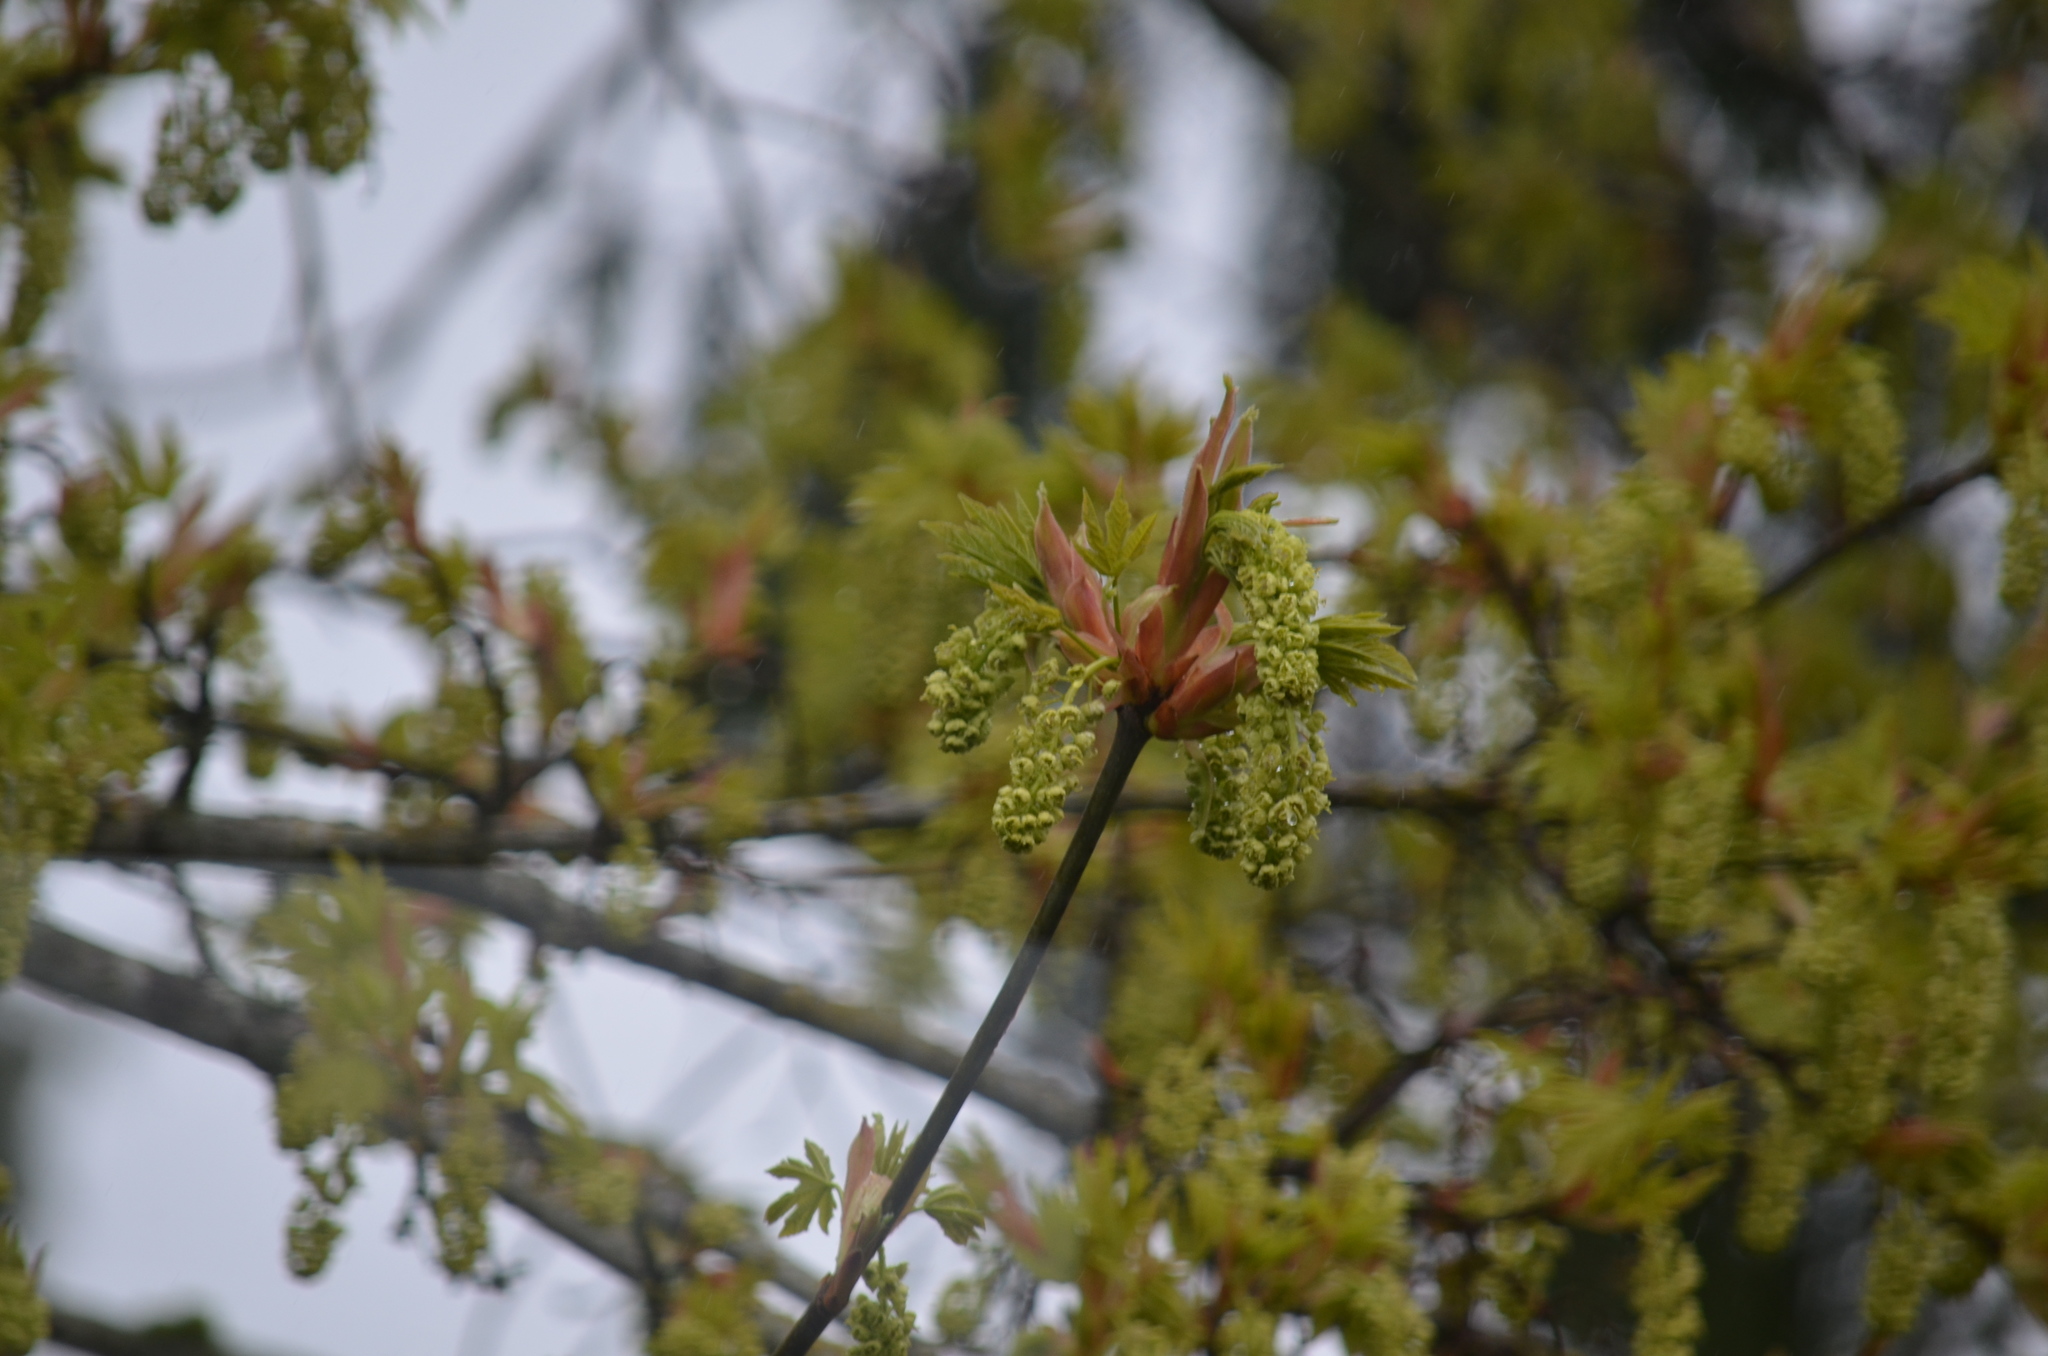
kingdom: Plantae
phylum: Tracheophyta
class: Magnoliopsida
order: Sapindales
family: Sapindaceae
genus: Acer
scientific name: Acer macrophyllum
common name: Oregon maple
